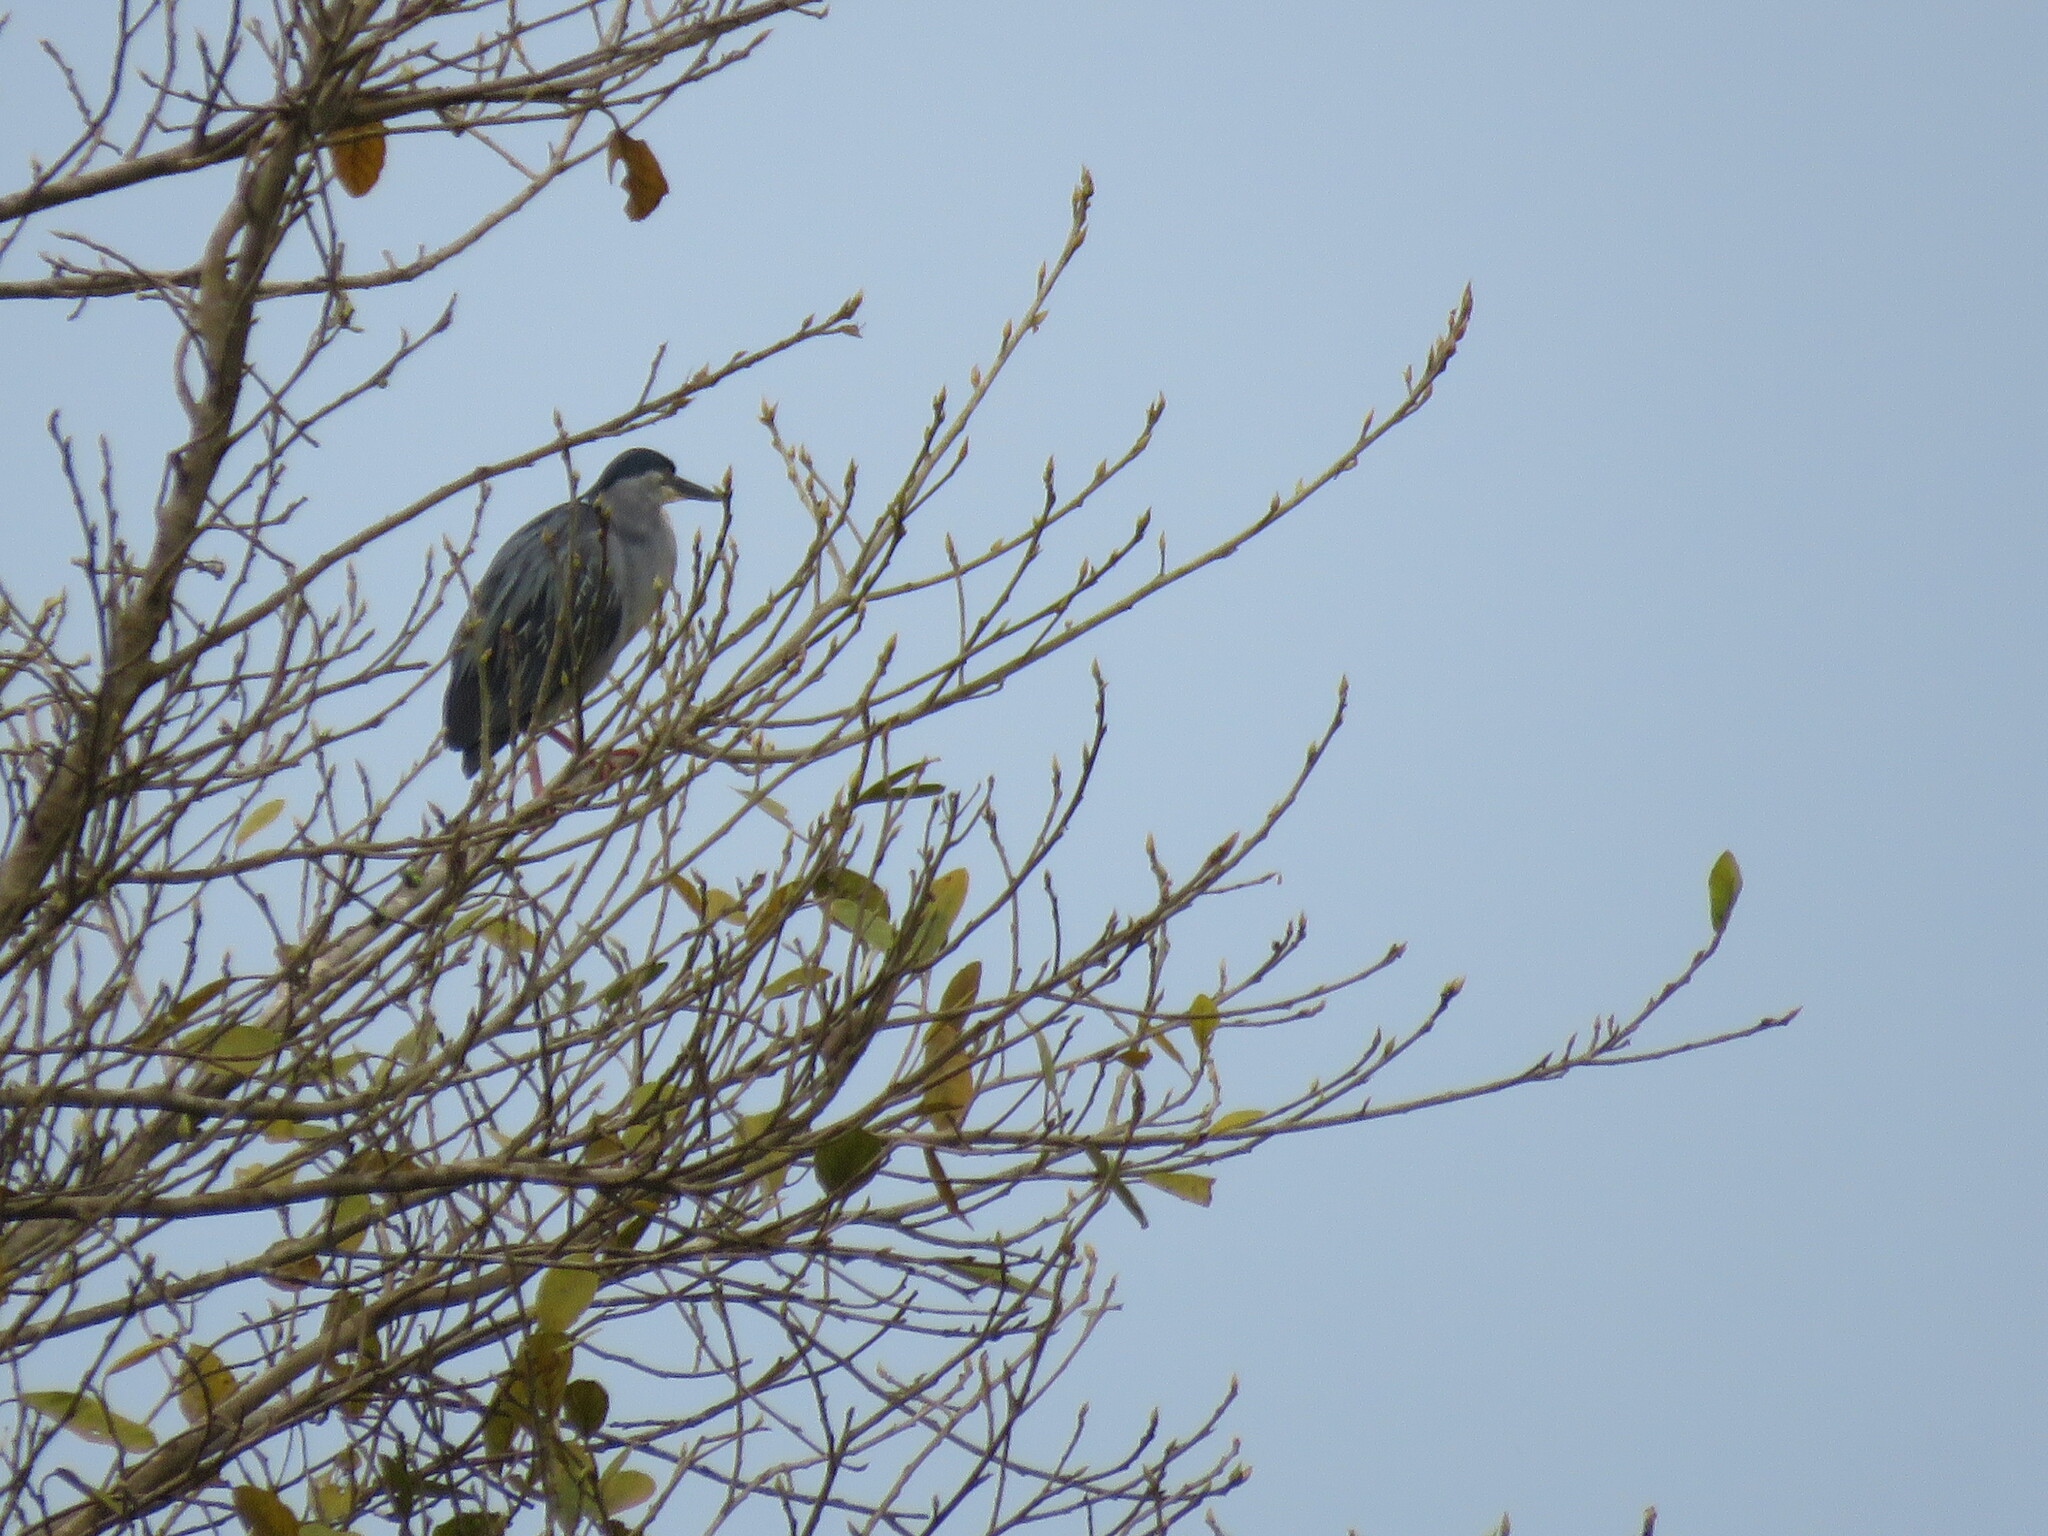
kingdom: Animalia
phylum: Chordata
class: Aves
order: Pelecaniformes
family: Ardeidae
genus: Nycticorax
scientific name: Nycticorax nycticorax
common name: Black-crowned night heron
